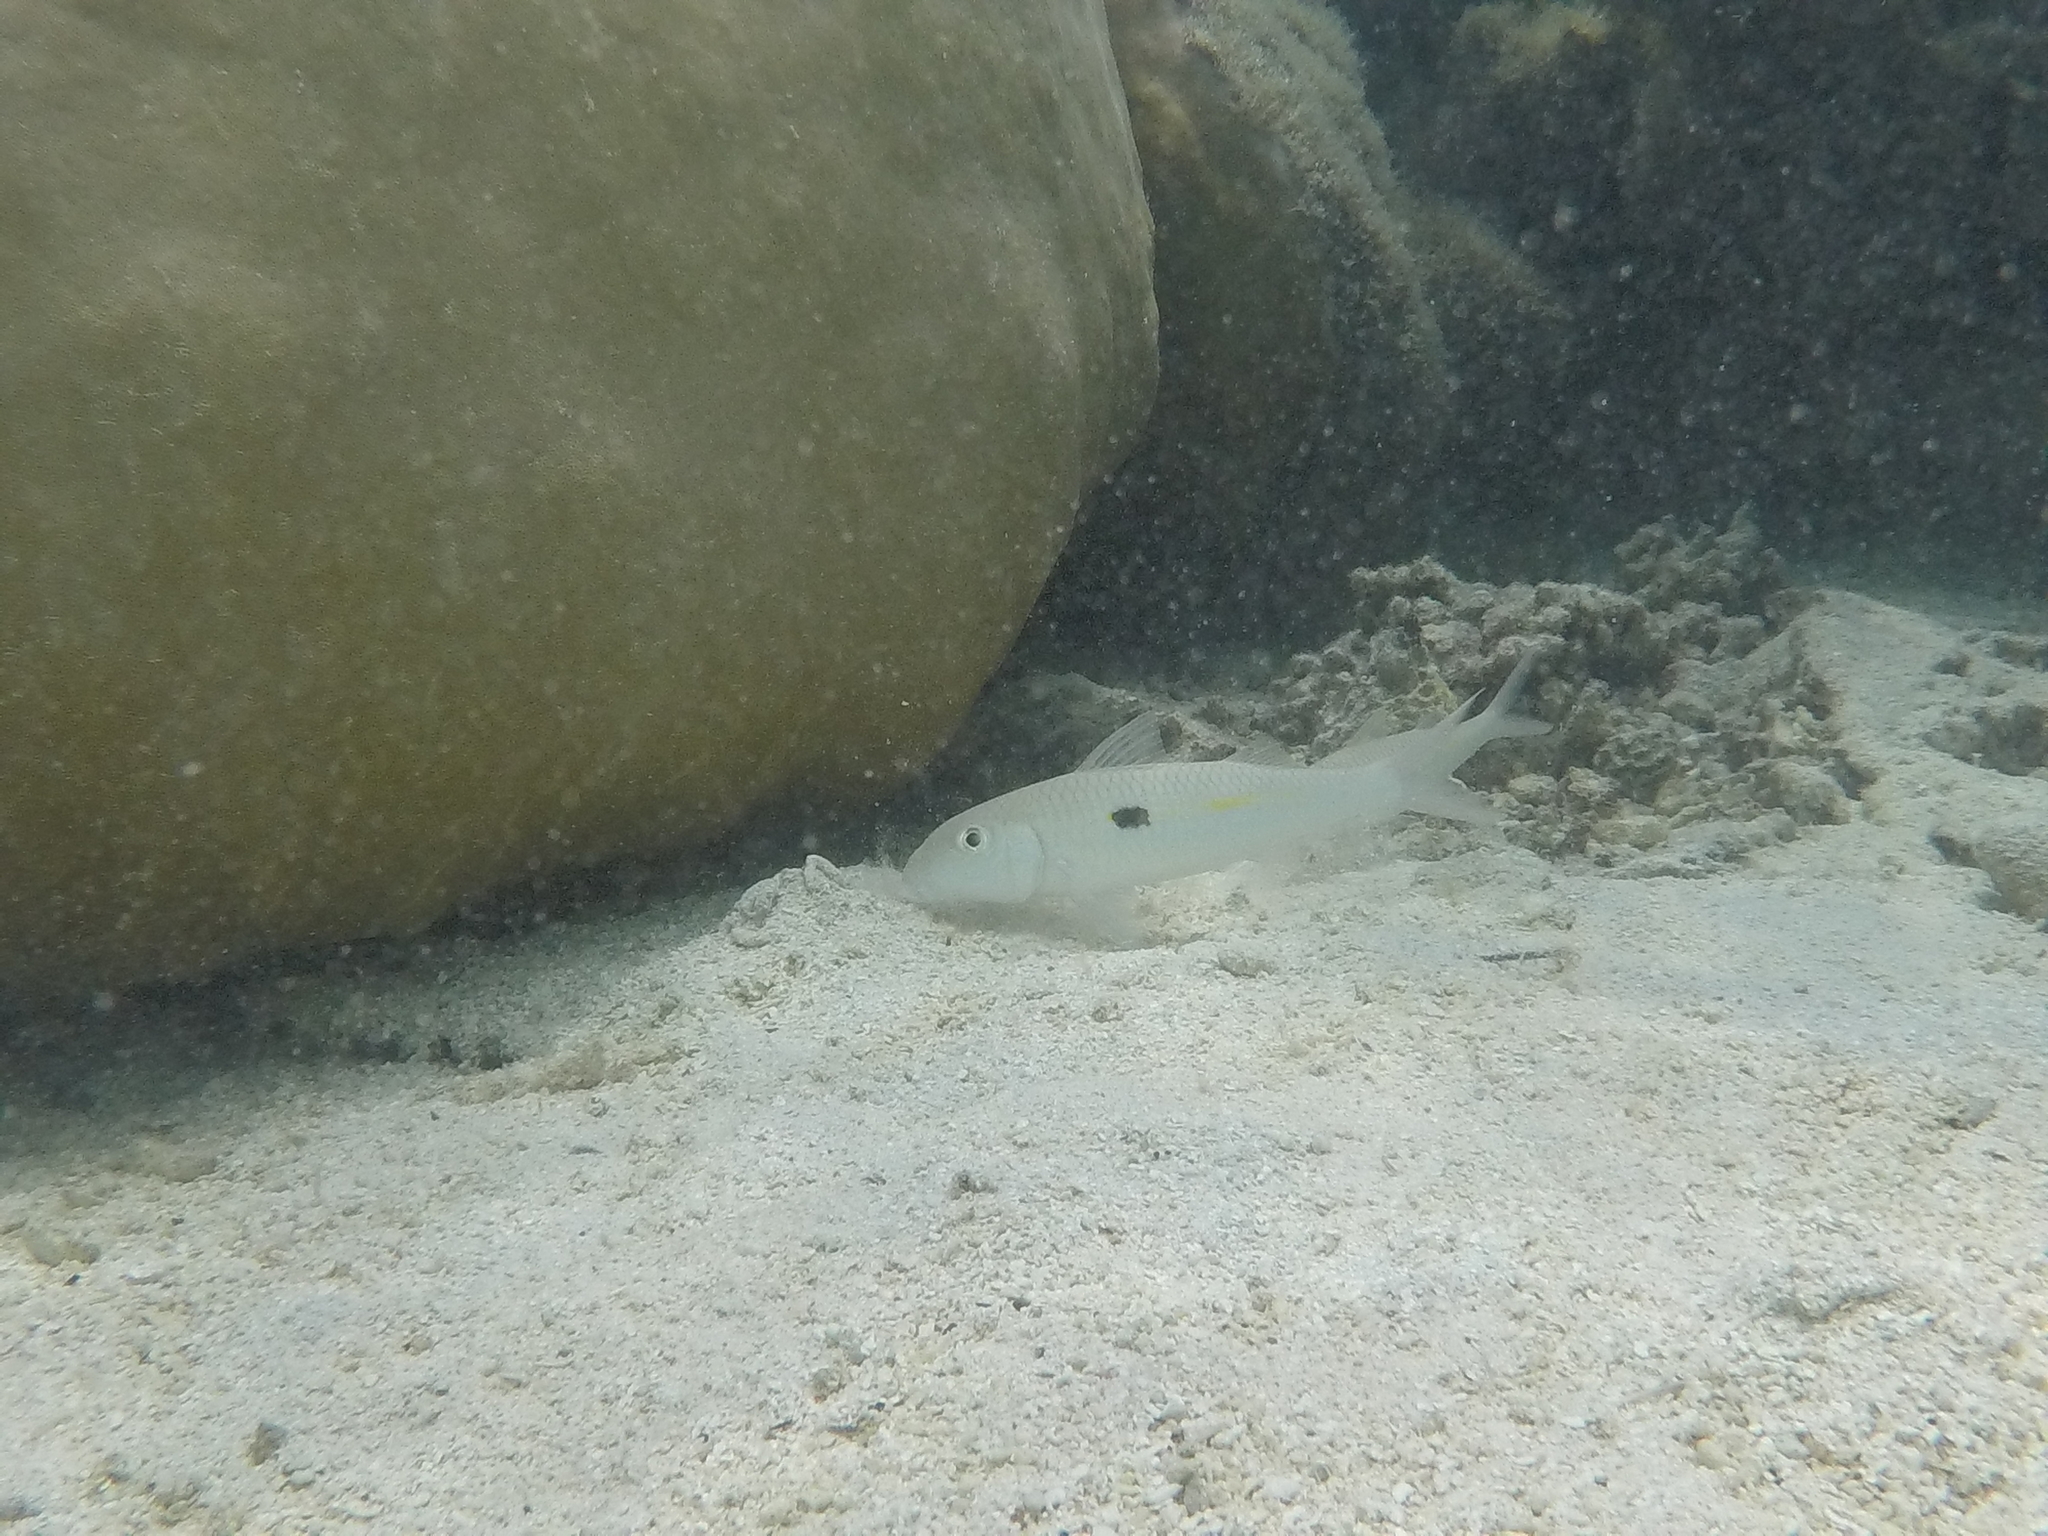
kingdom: Animalia
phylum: Chordata
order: Perciformes
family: Mullidae
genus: Mulloidichthys
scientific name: Mulloidichthys flavolineatus
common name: Yellowstripe goatfish
